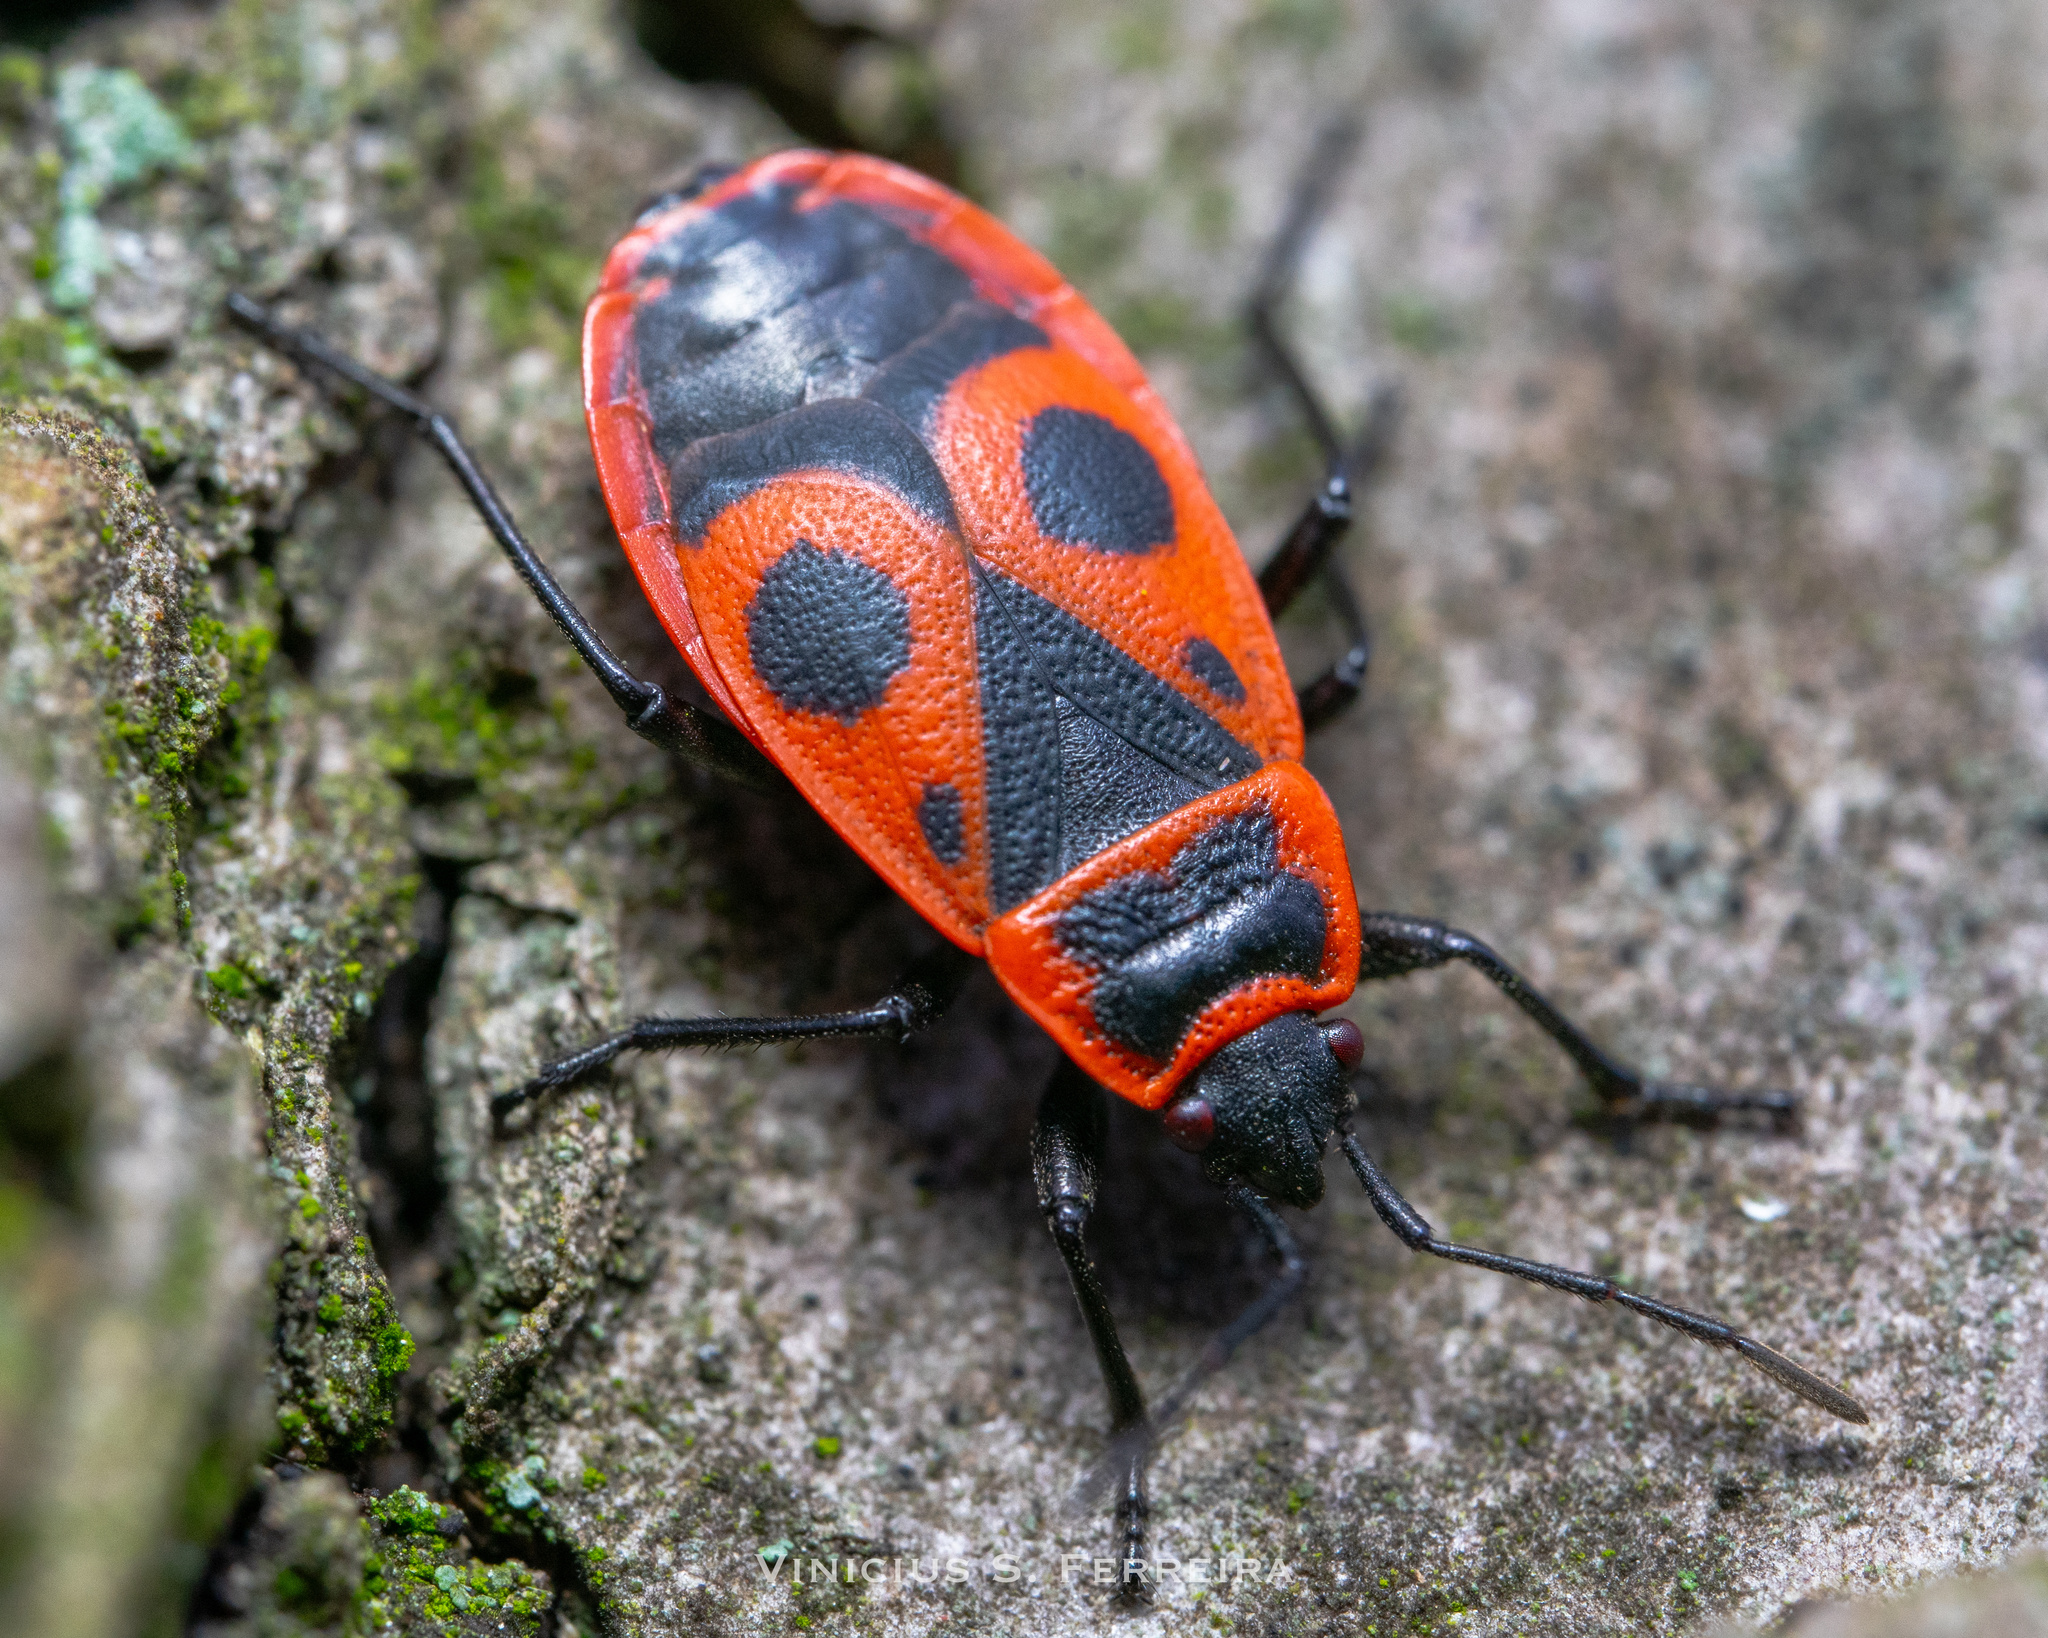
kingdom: Animalia
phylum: Arthropoda
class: Insecta
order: Hemiptera
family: Pyrrhocoridae
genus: Pyrrhocoris
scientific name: Pyrrhocoris apterus
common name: Firebug
